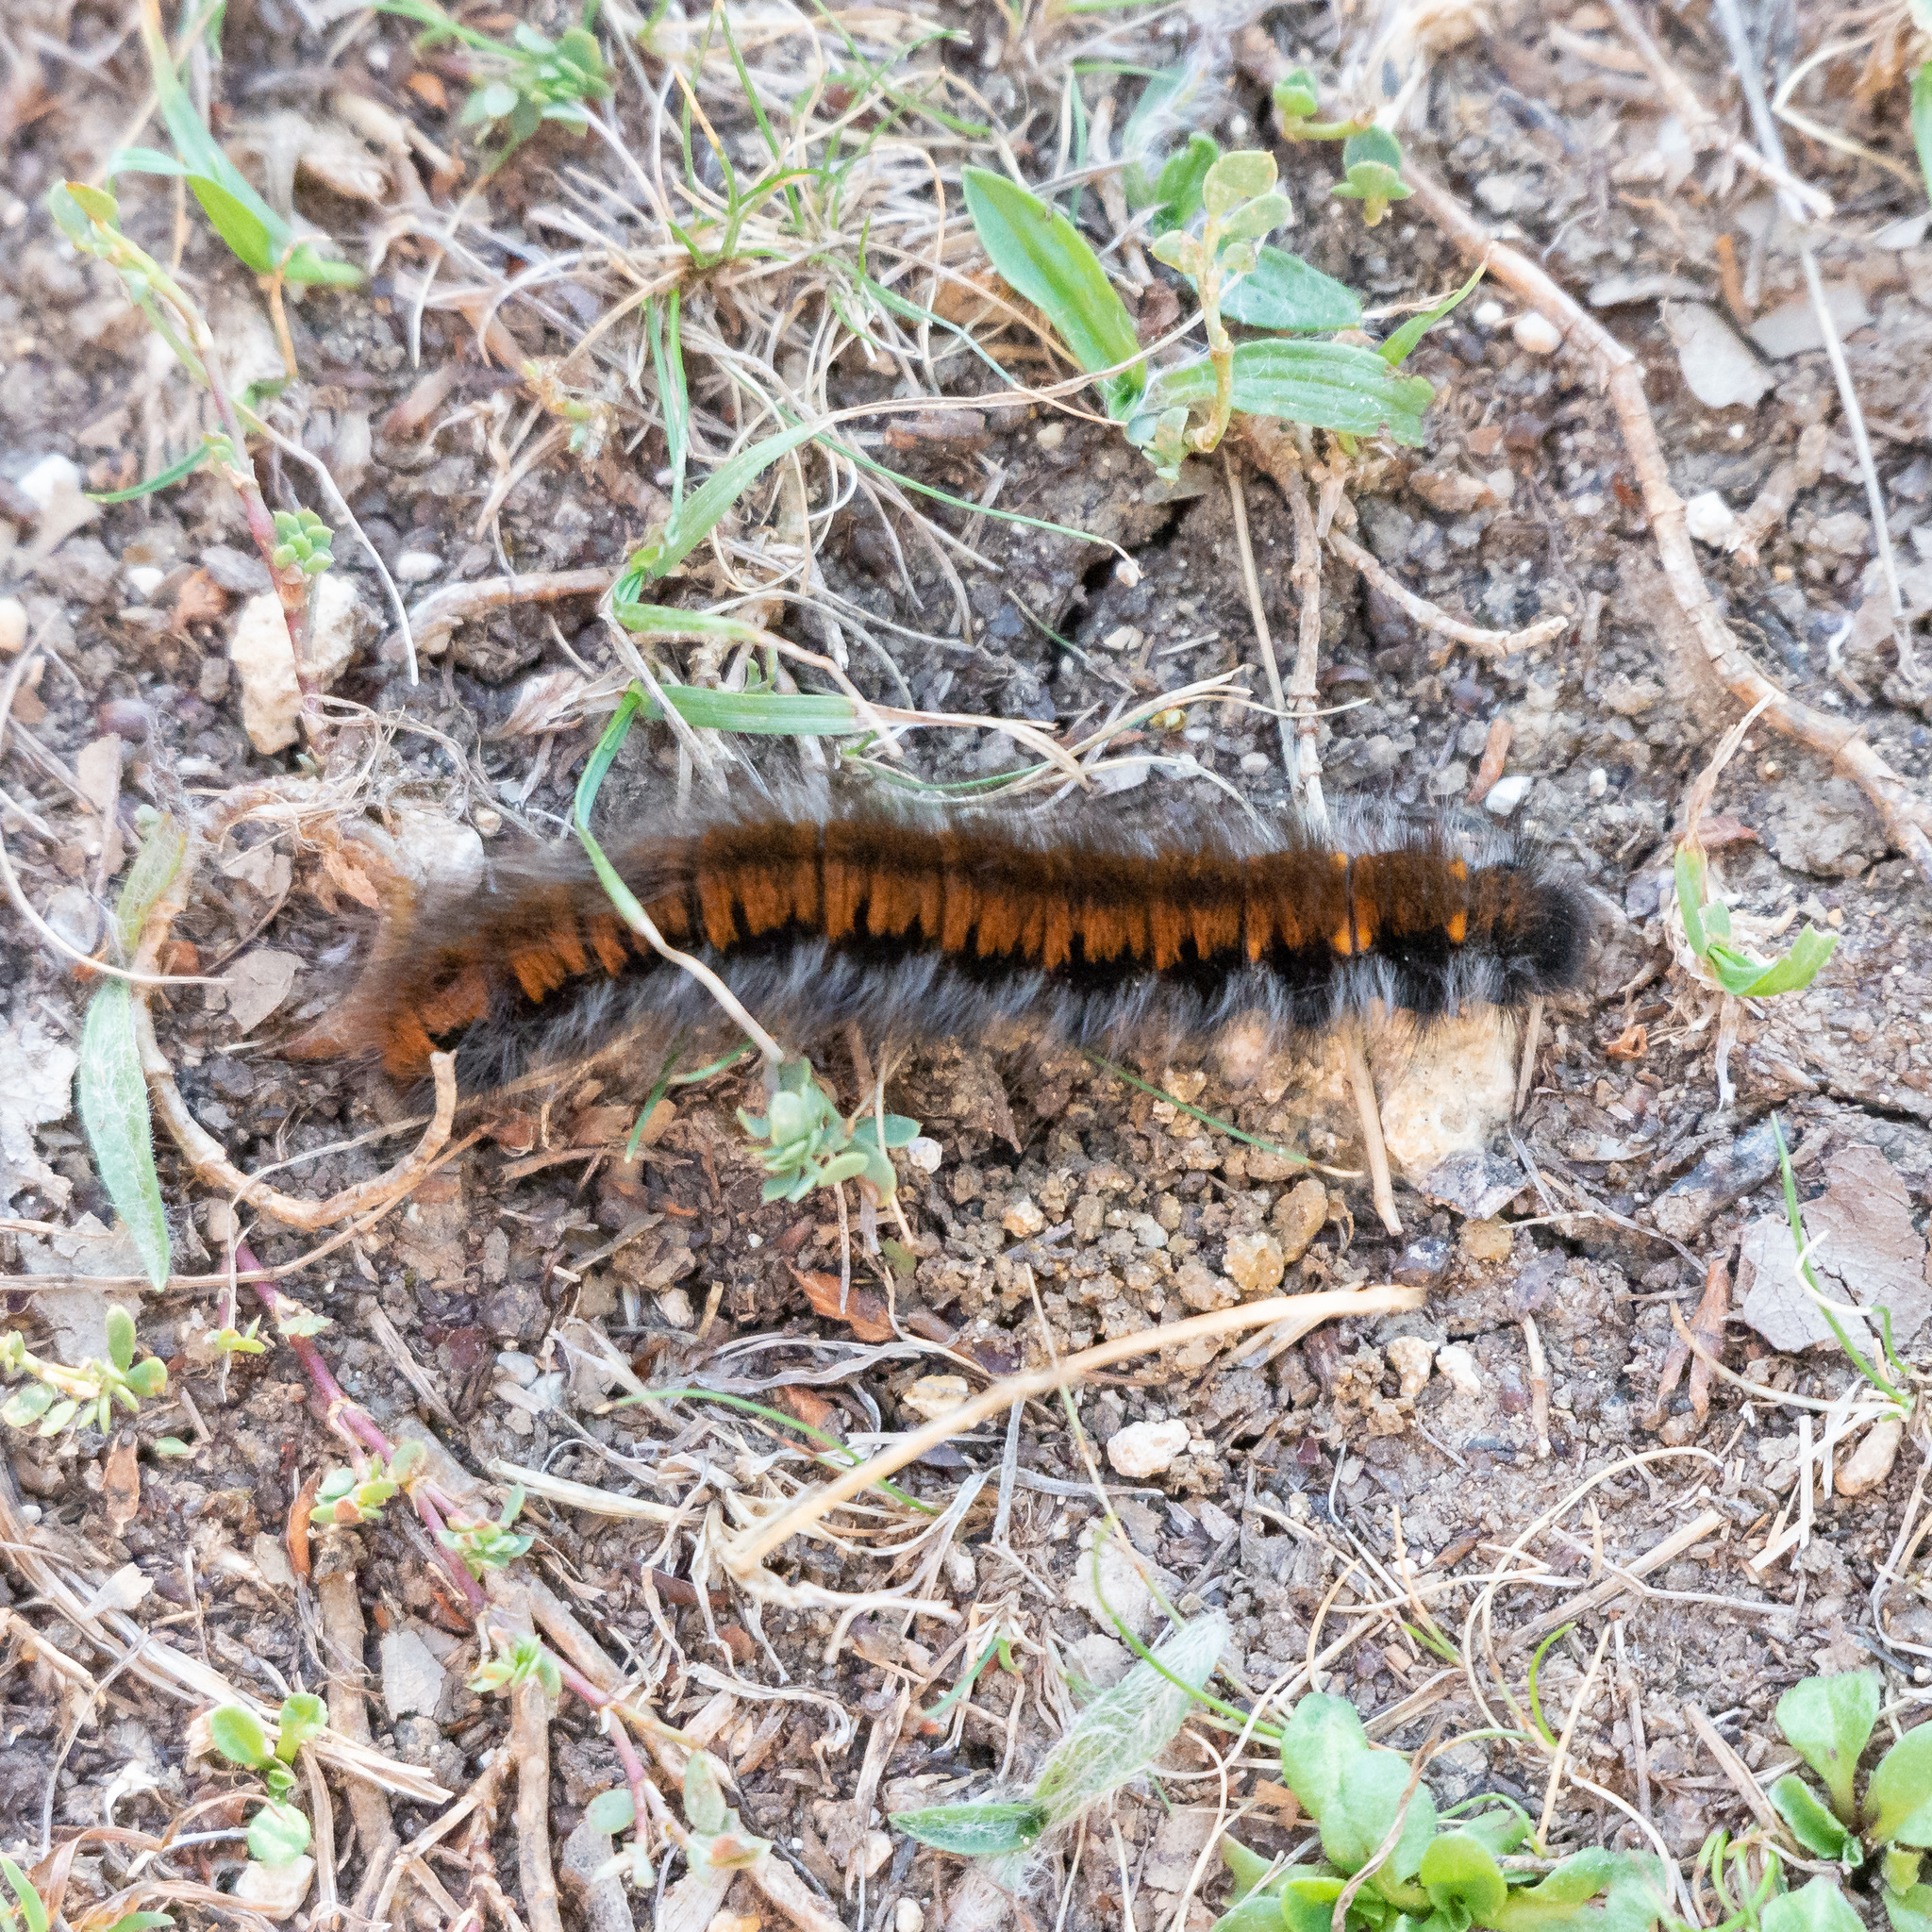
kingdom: Animalia
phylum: Arthropoda
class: Insecta
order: Lepidoptera
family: Lasiocampidae
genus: Macrothylacia
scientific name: Macrothylacia rubi
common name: Fox moth
